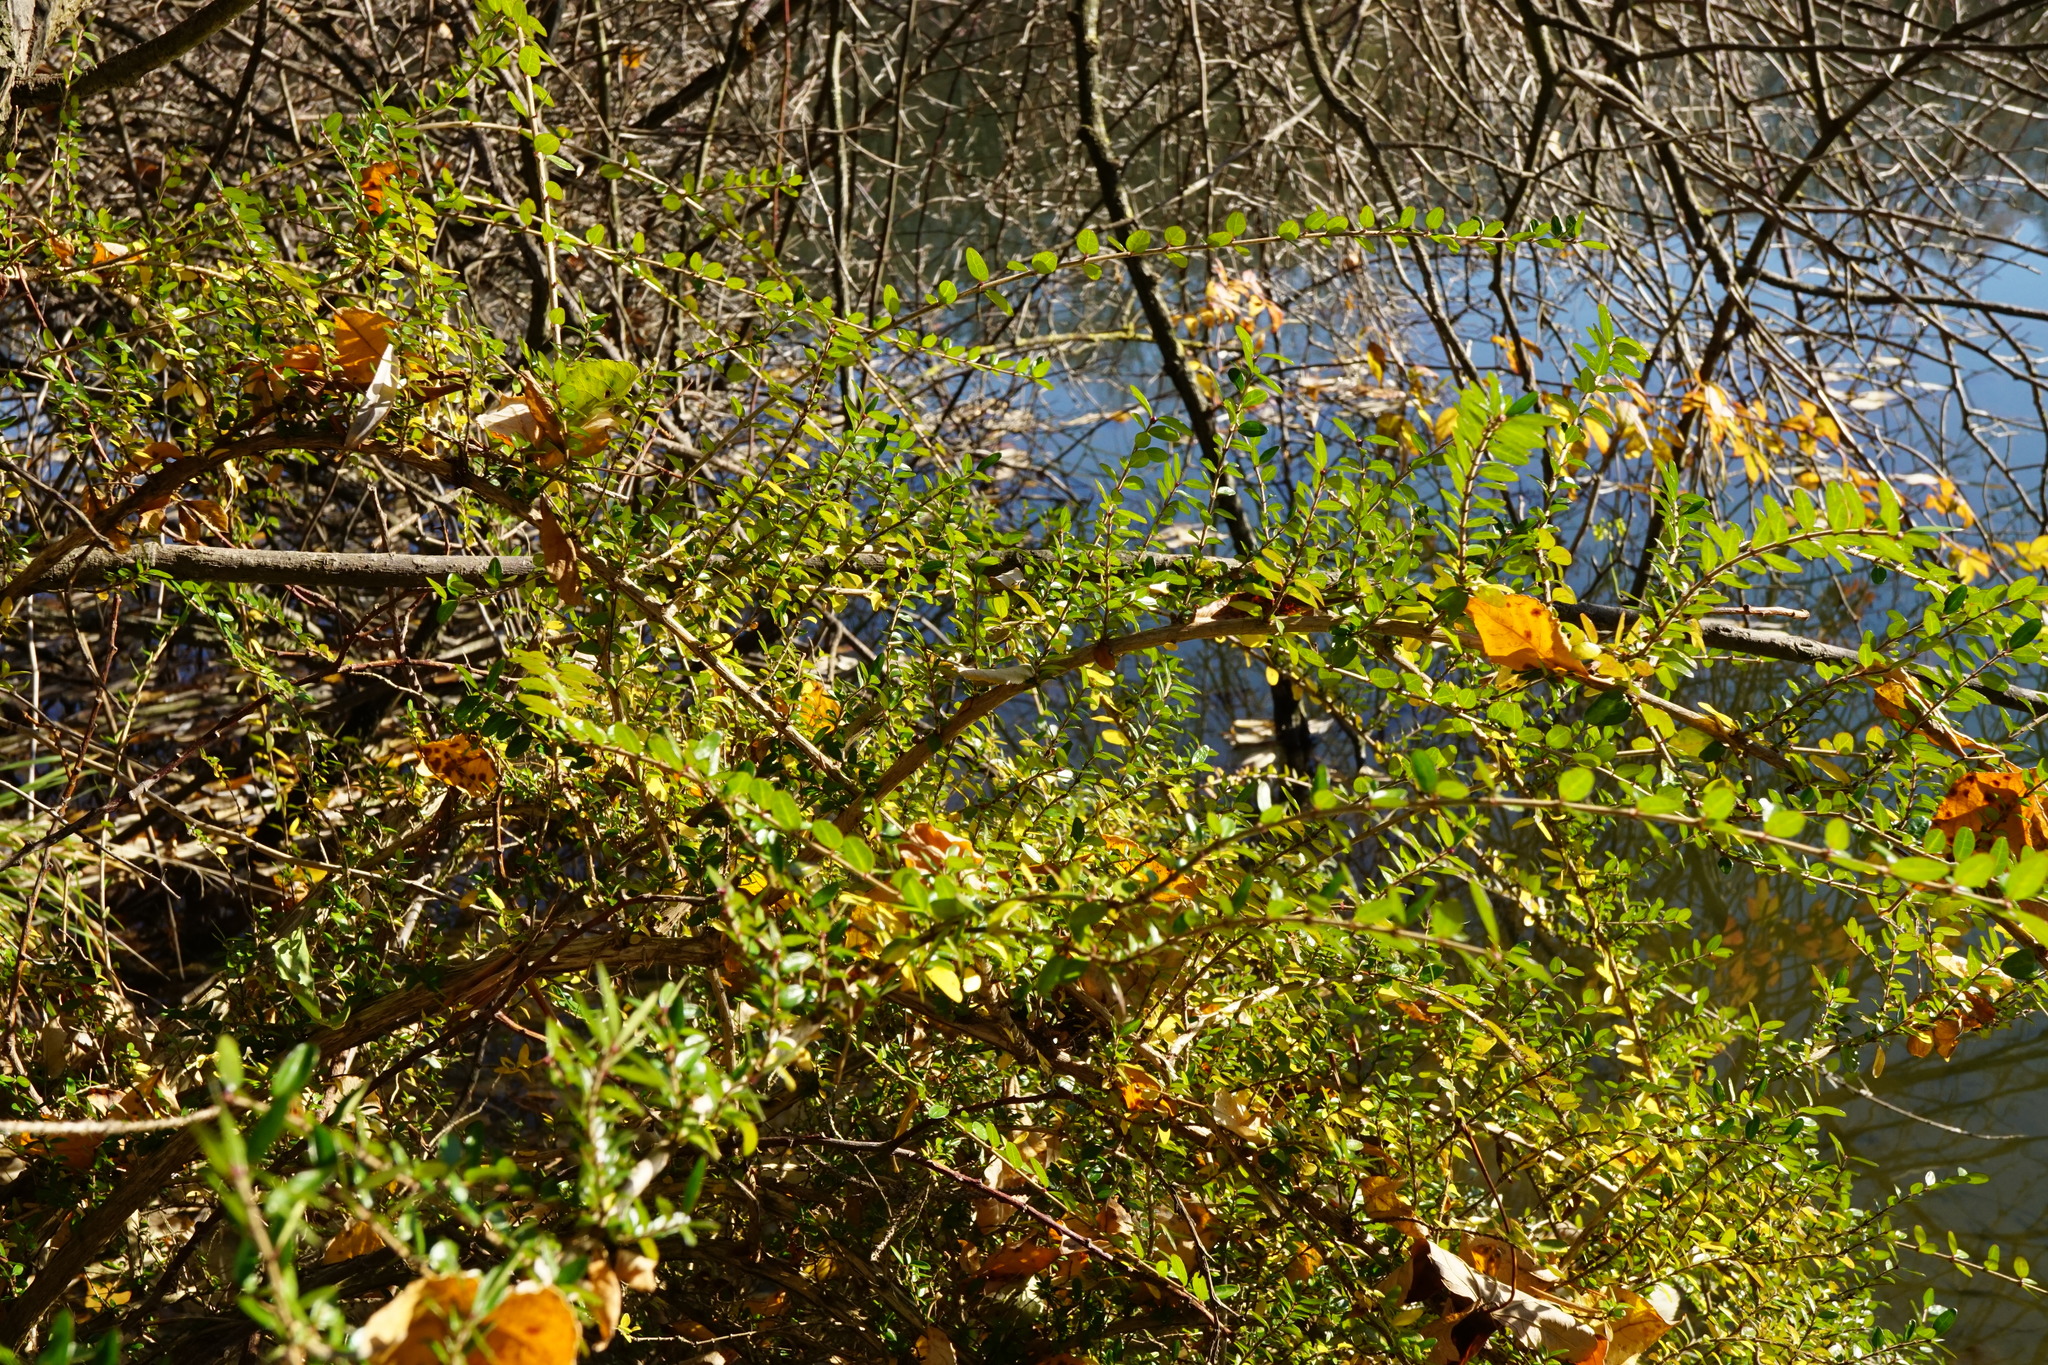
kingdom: Plantae
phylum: Tracheophyta
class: Magnoliopsida
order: Dipsacales
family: Caprifoliaceae
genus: Lonicera
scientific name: Lonicera pileata
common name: Box-leaved honeysuckle
